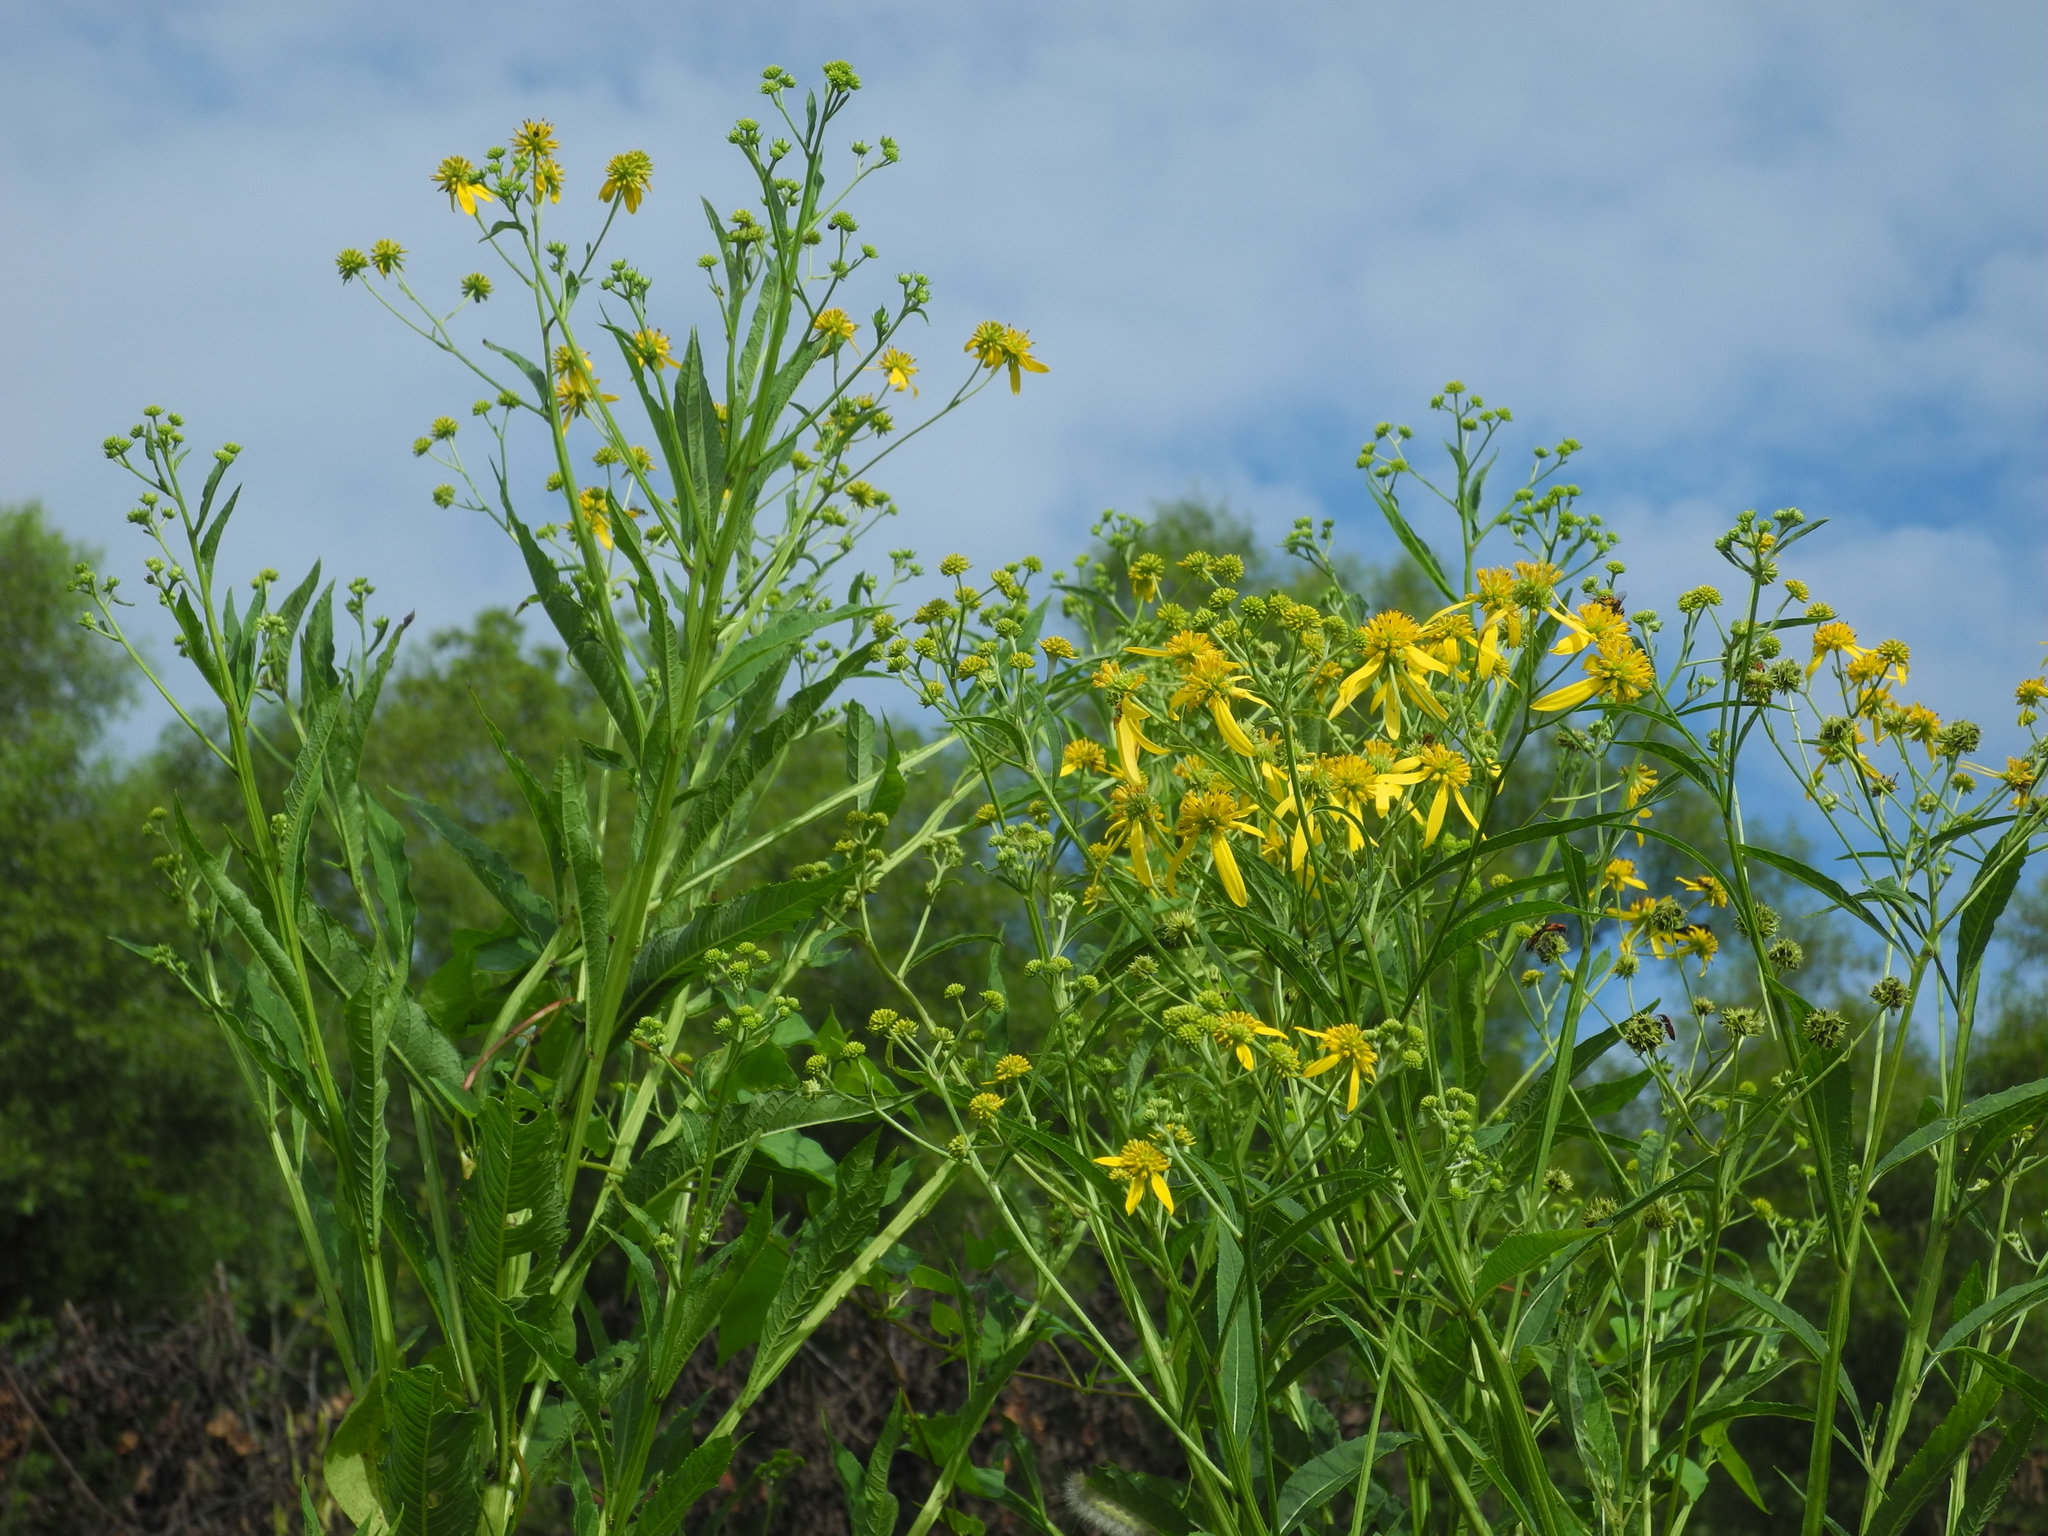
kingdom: Plantae
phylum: Tracheophyta
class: Magnoliopsida
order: Asterales
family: Asteraceae
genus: Verbesina
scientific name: Verbesina alternifolia
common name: Wingstem
